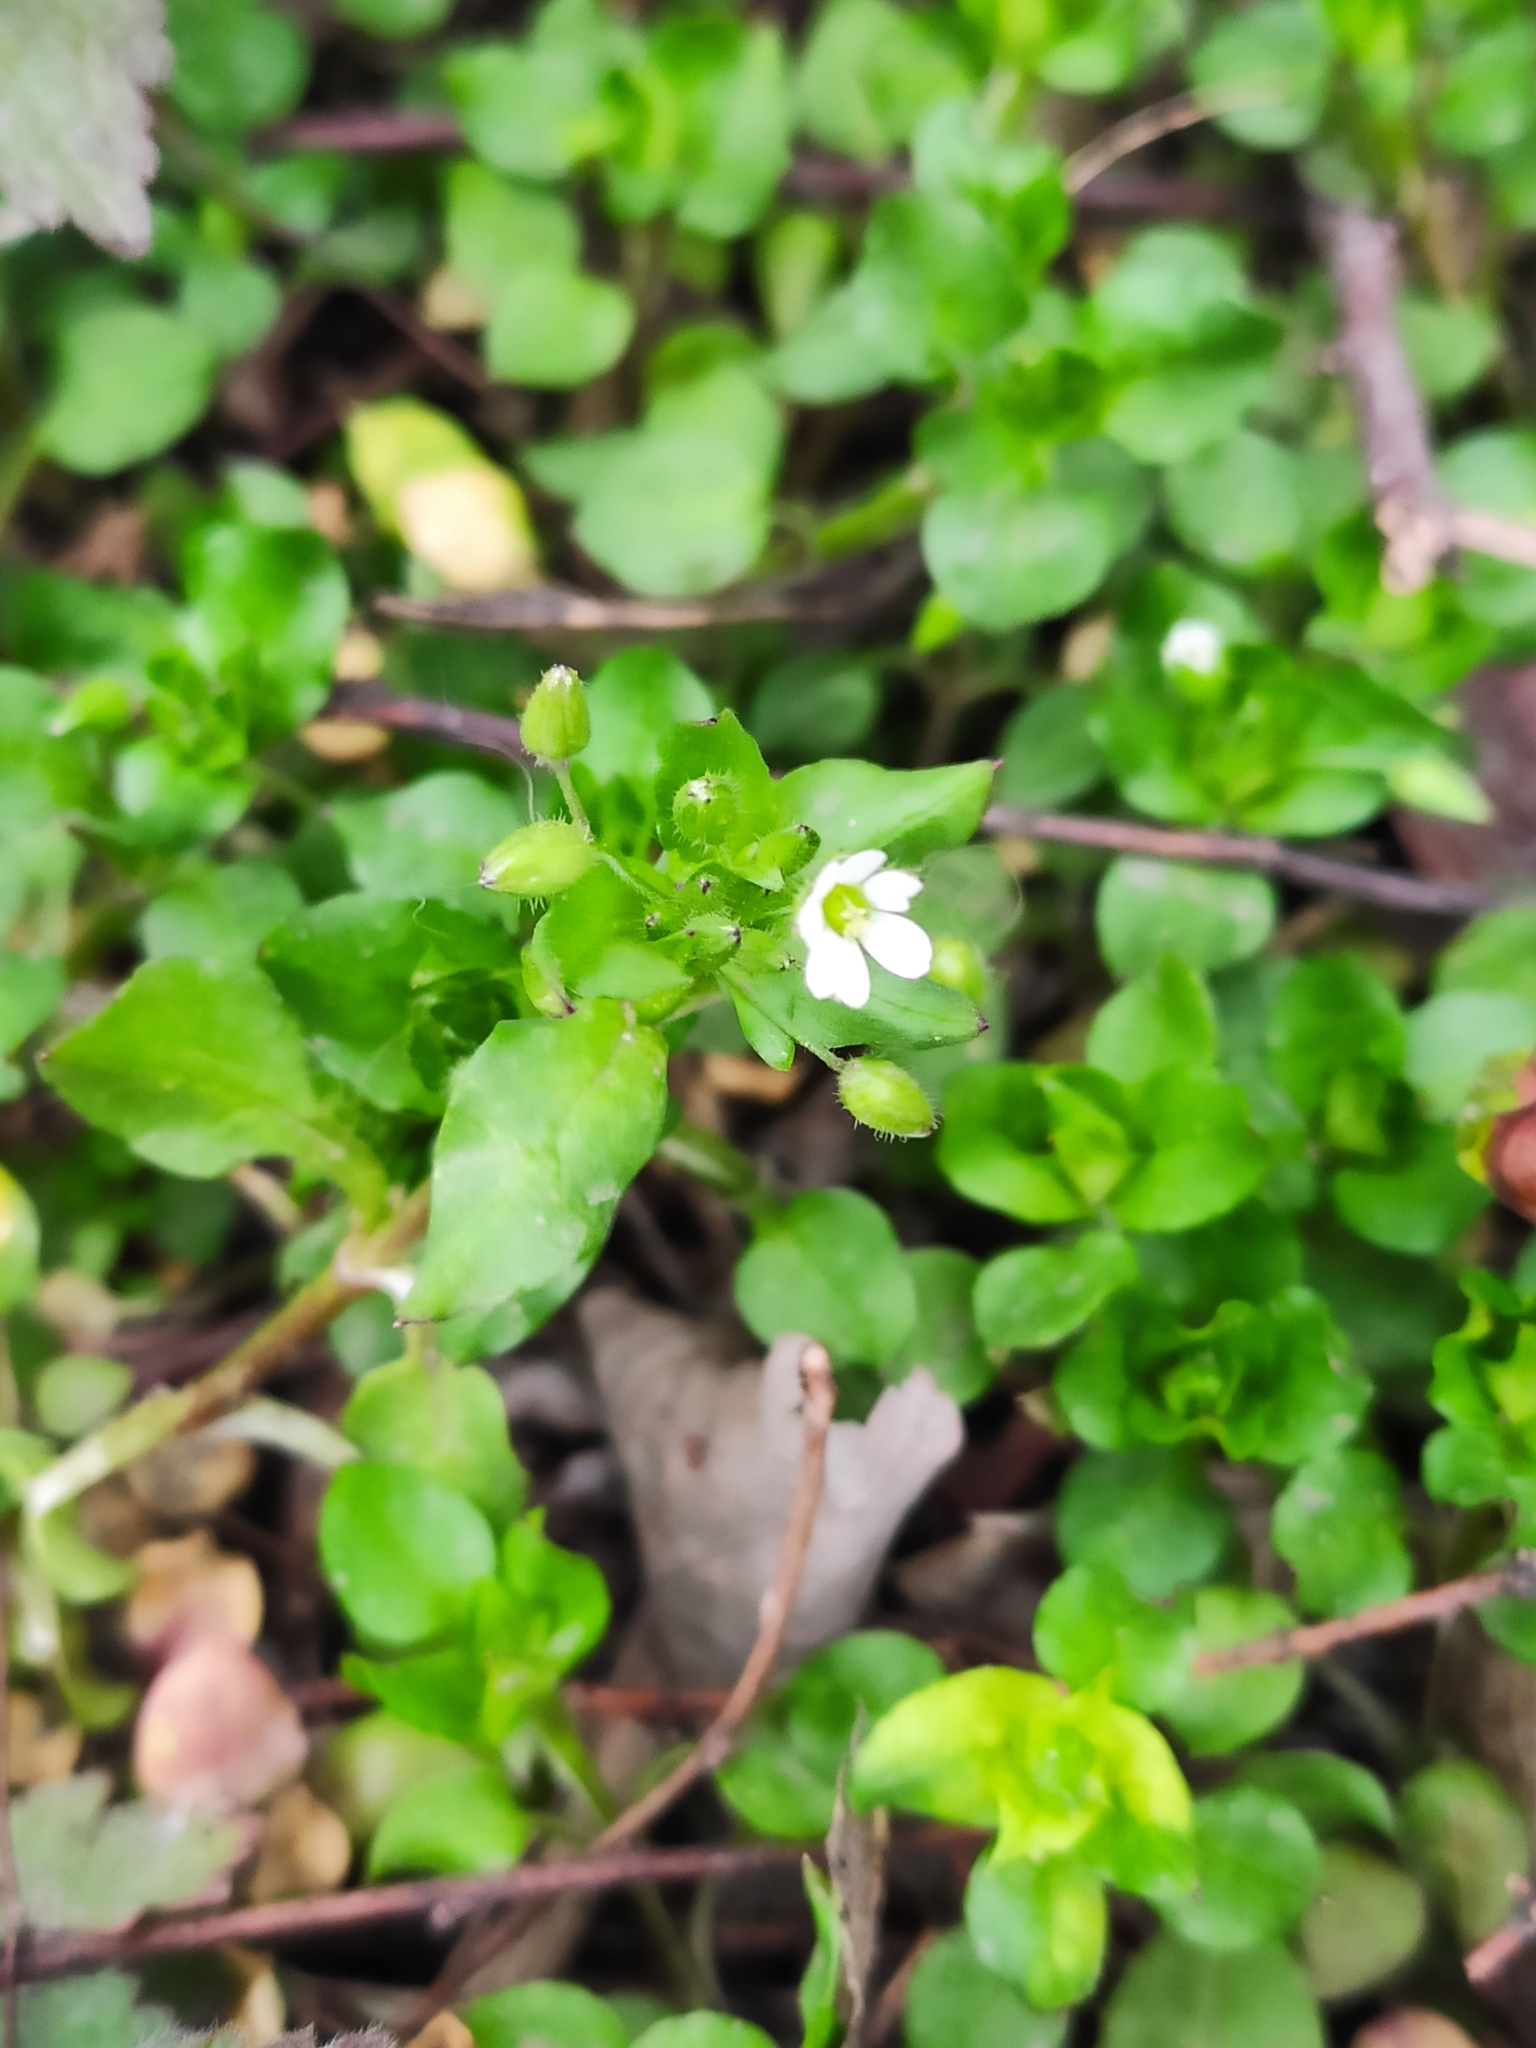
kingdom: Plantae
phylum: Tracheophyta
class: Magnoliopsida
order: Caryophyllales
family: Caryophyllaceae
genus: Stellaria
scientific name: Stellaria media
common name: Common chickweed
